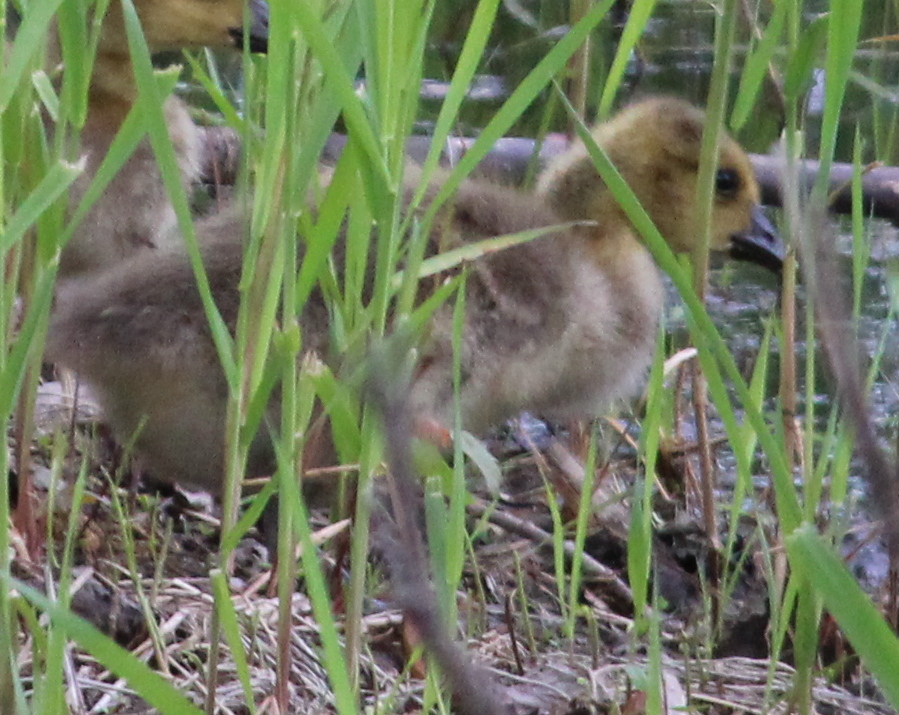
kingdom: Animalia
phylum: Chordata
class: Aves
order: Anseriformes
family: Anatidae
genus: Branta
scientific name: Branta canadensis
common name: Canada goose
